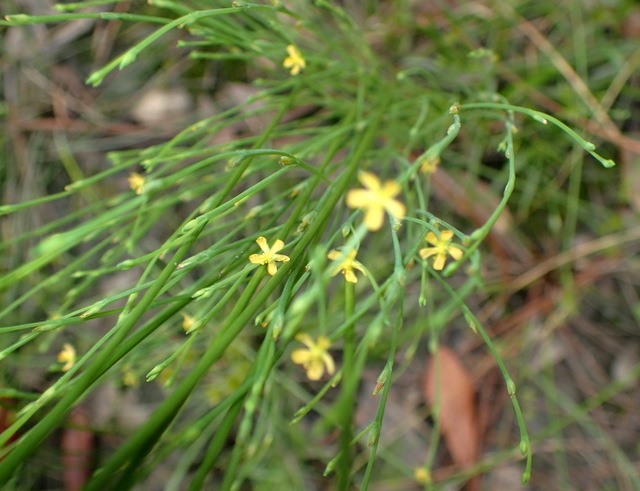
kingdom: Plantae
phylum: Tracheophyta
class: Magnoliopsida
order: Malpighiales
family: Hypericaceae
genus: Hypericum
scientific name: Hypericum gentianoides
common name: Gentian-leaved st. john's-wort
